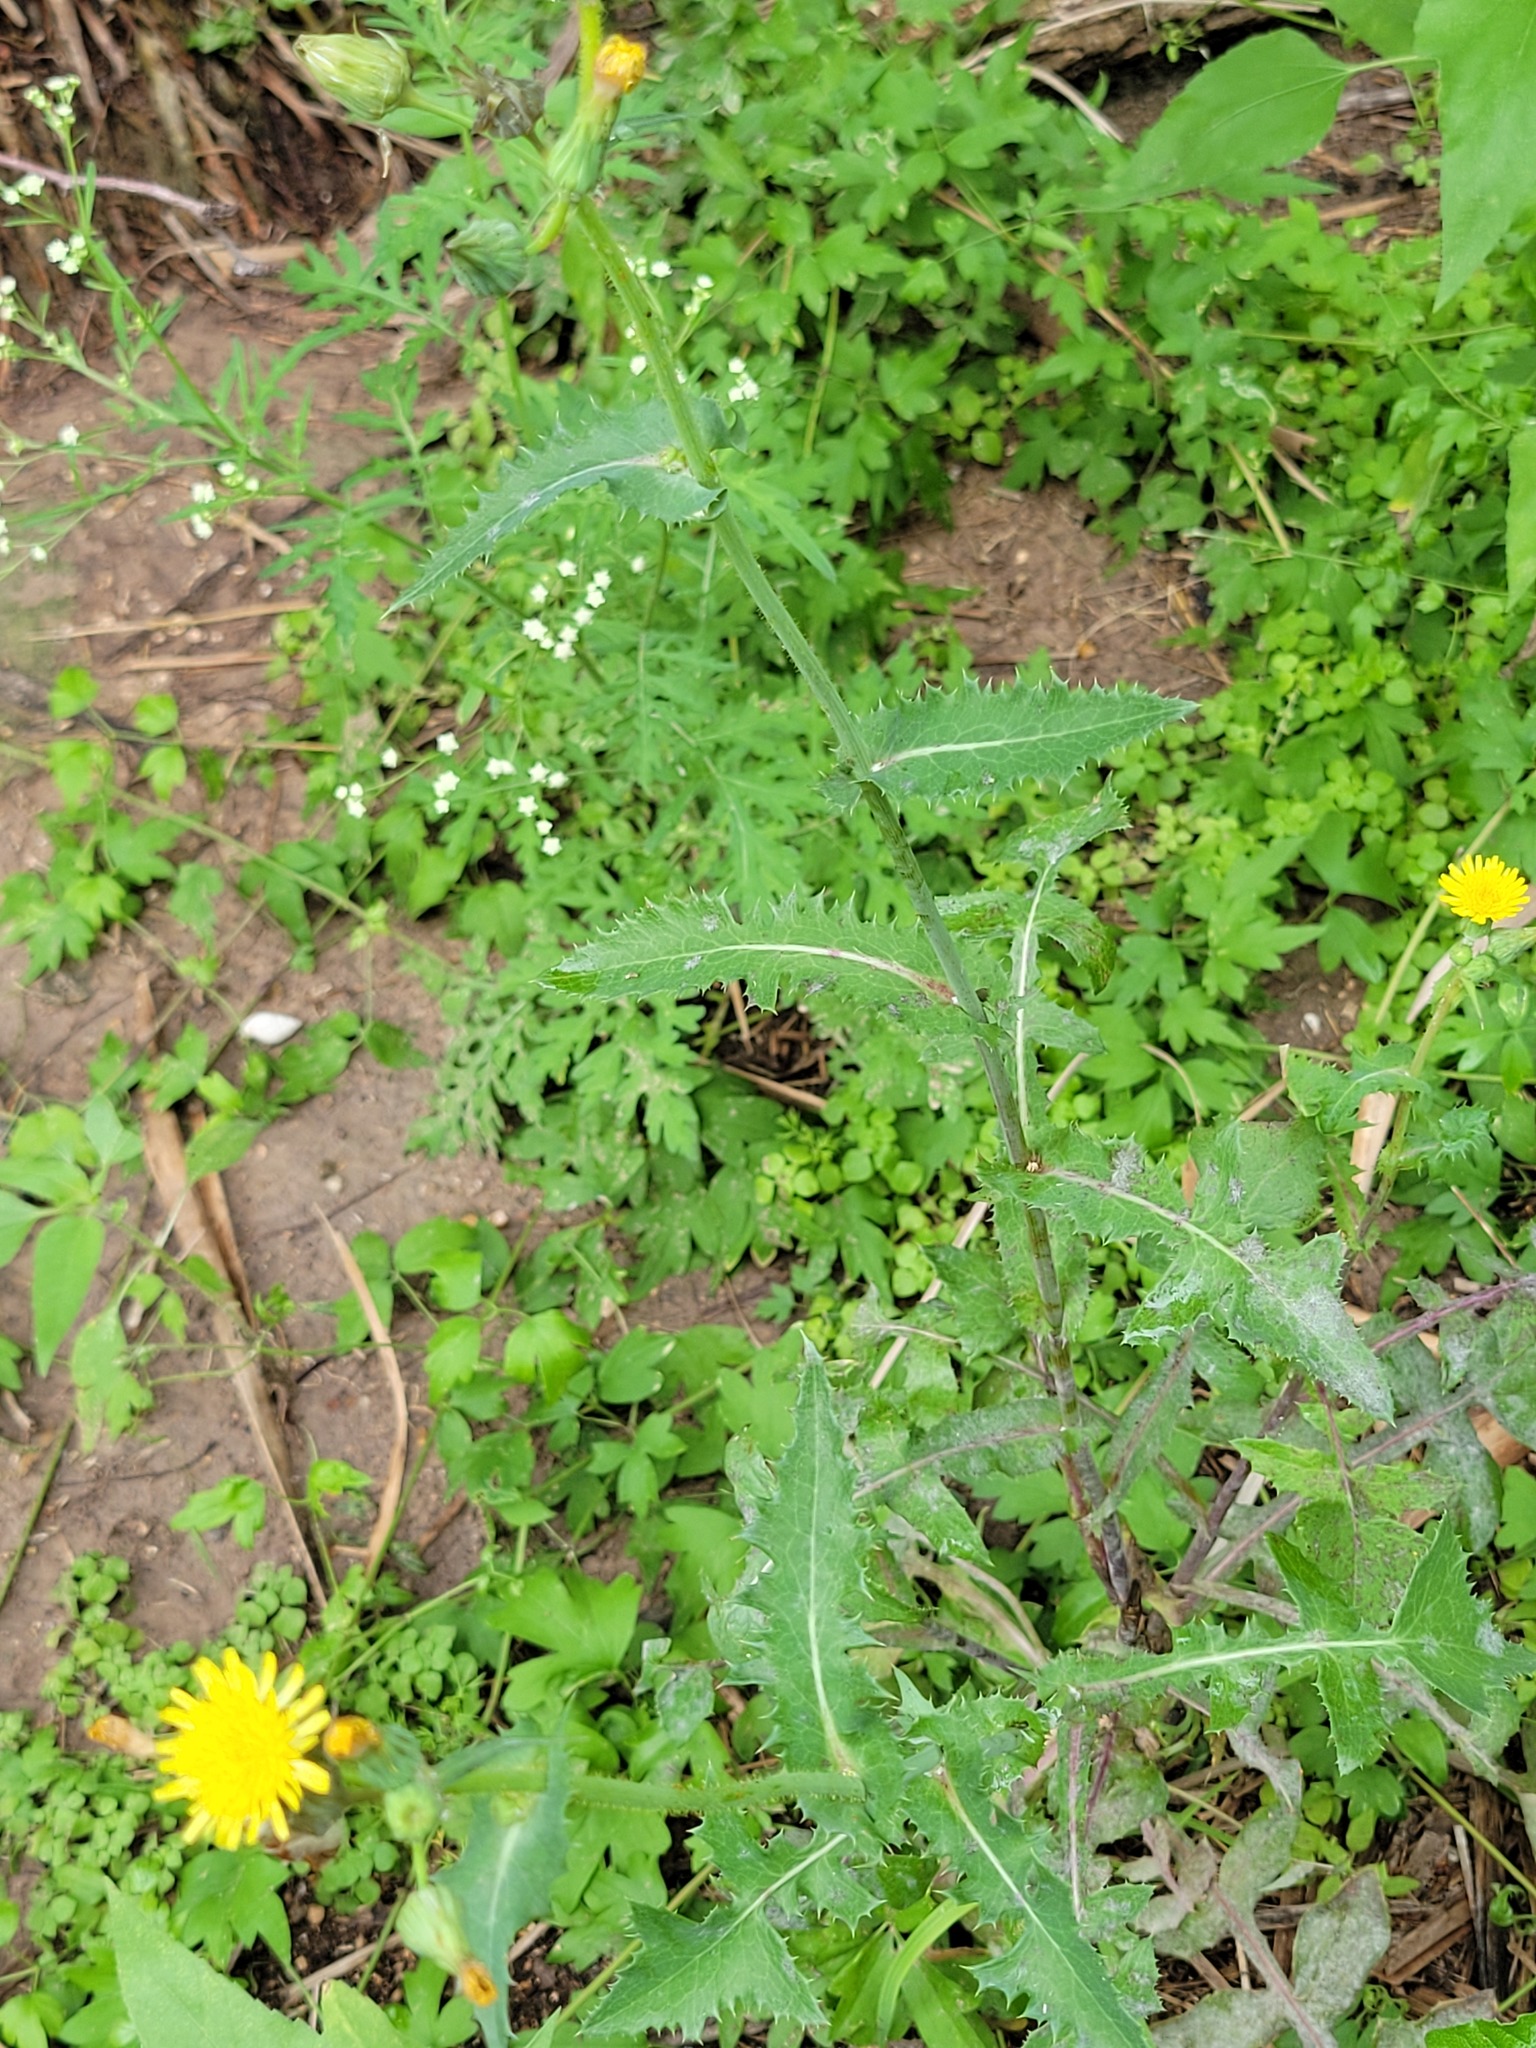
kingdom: Plantae
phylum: Tracheophyta
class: Magnoliopsida
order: Asterales
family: Asteraceae
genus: Sonchus
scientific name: Sonchus asper
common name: Prickly sow-thistle
